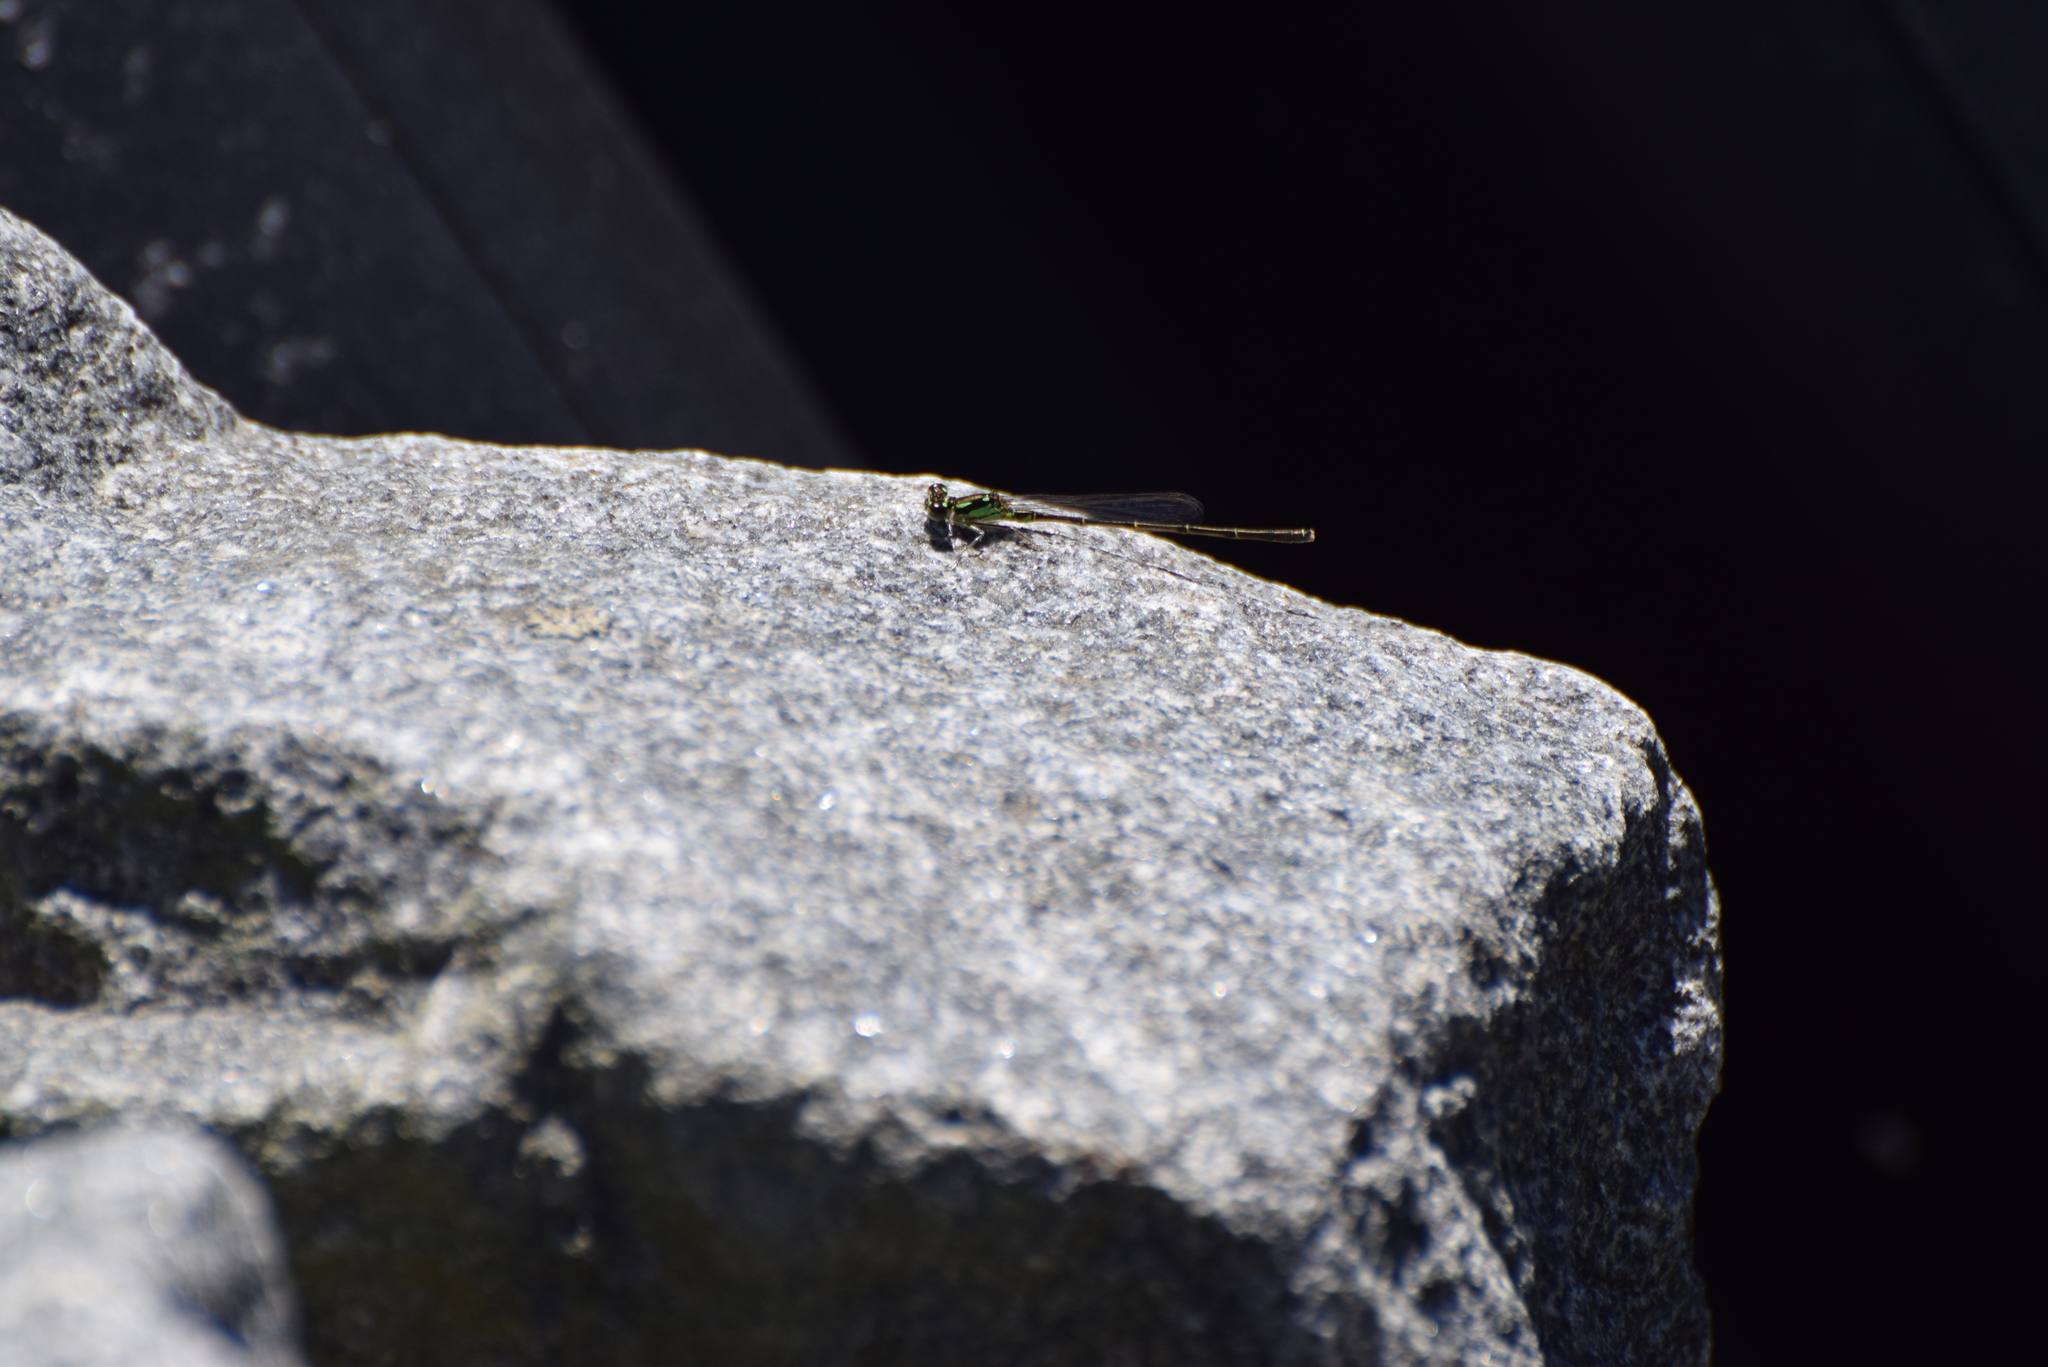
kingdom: Animalia
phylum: Arthropoda
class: Insecta
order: Odonata
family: Coenagrionidae
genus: Ischnura
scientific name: Ischnura posita
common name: Fragile forktail
